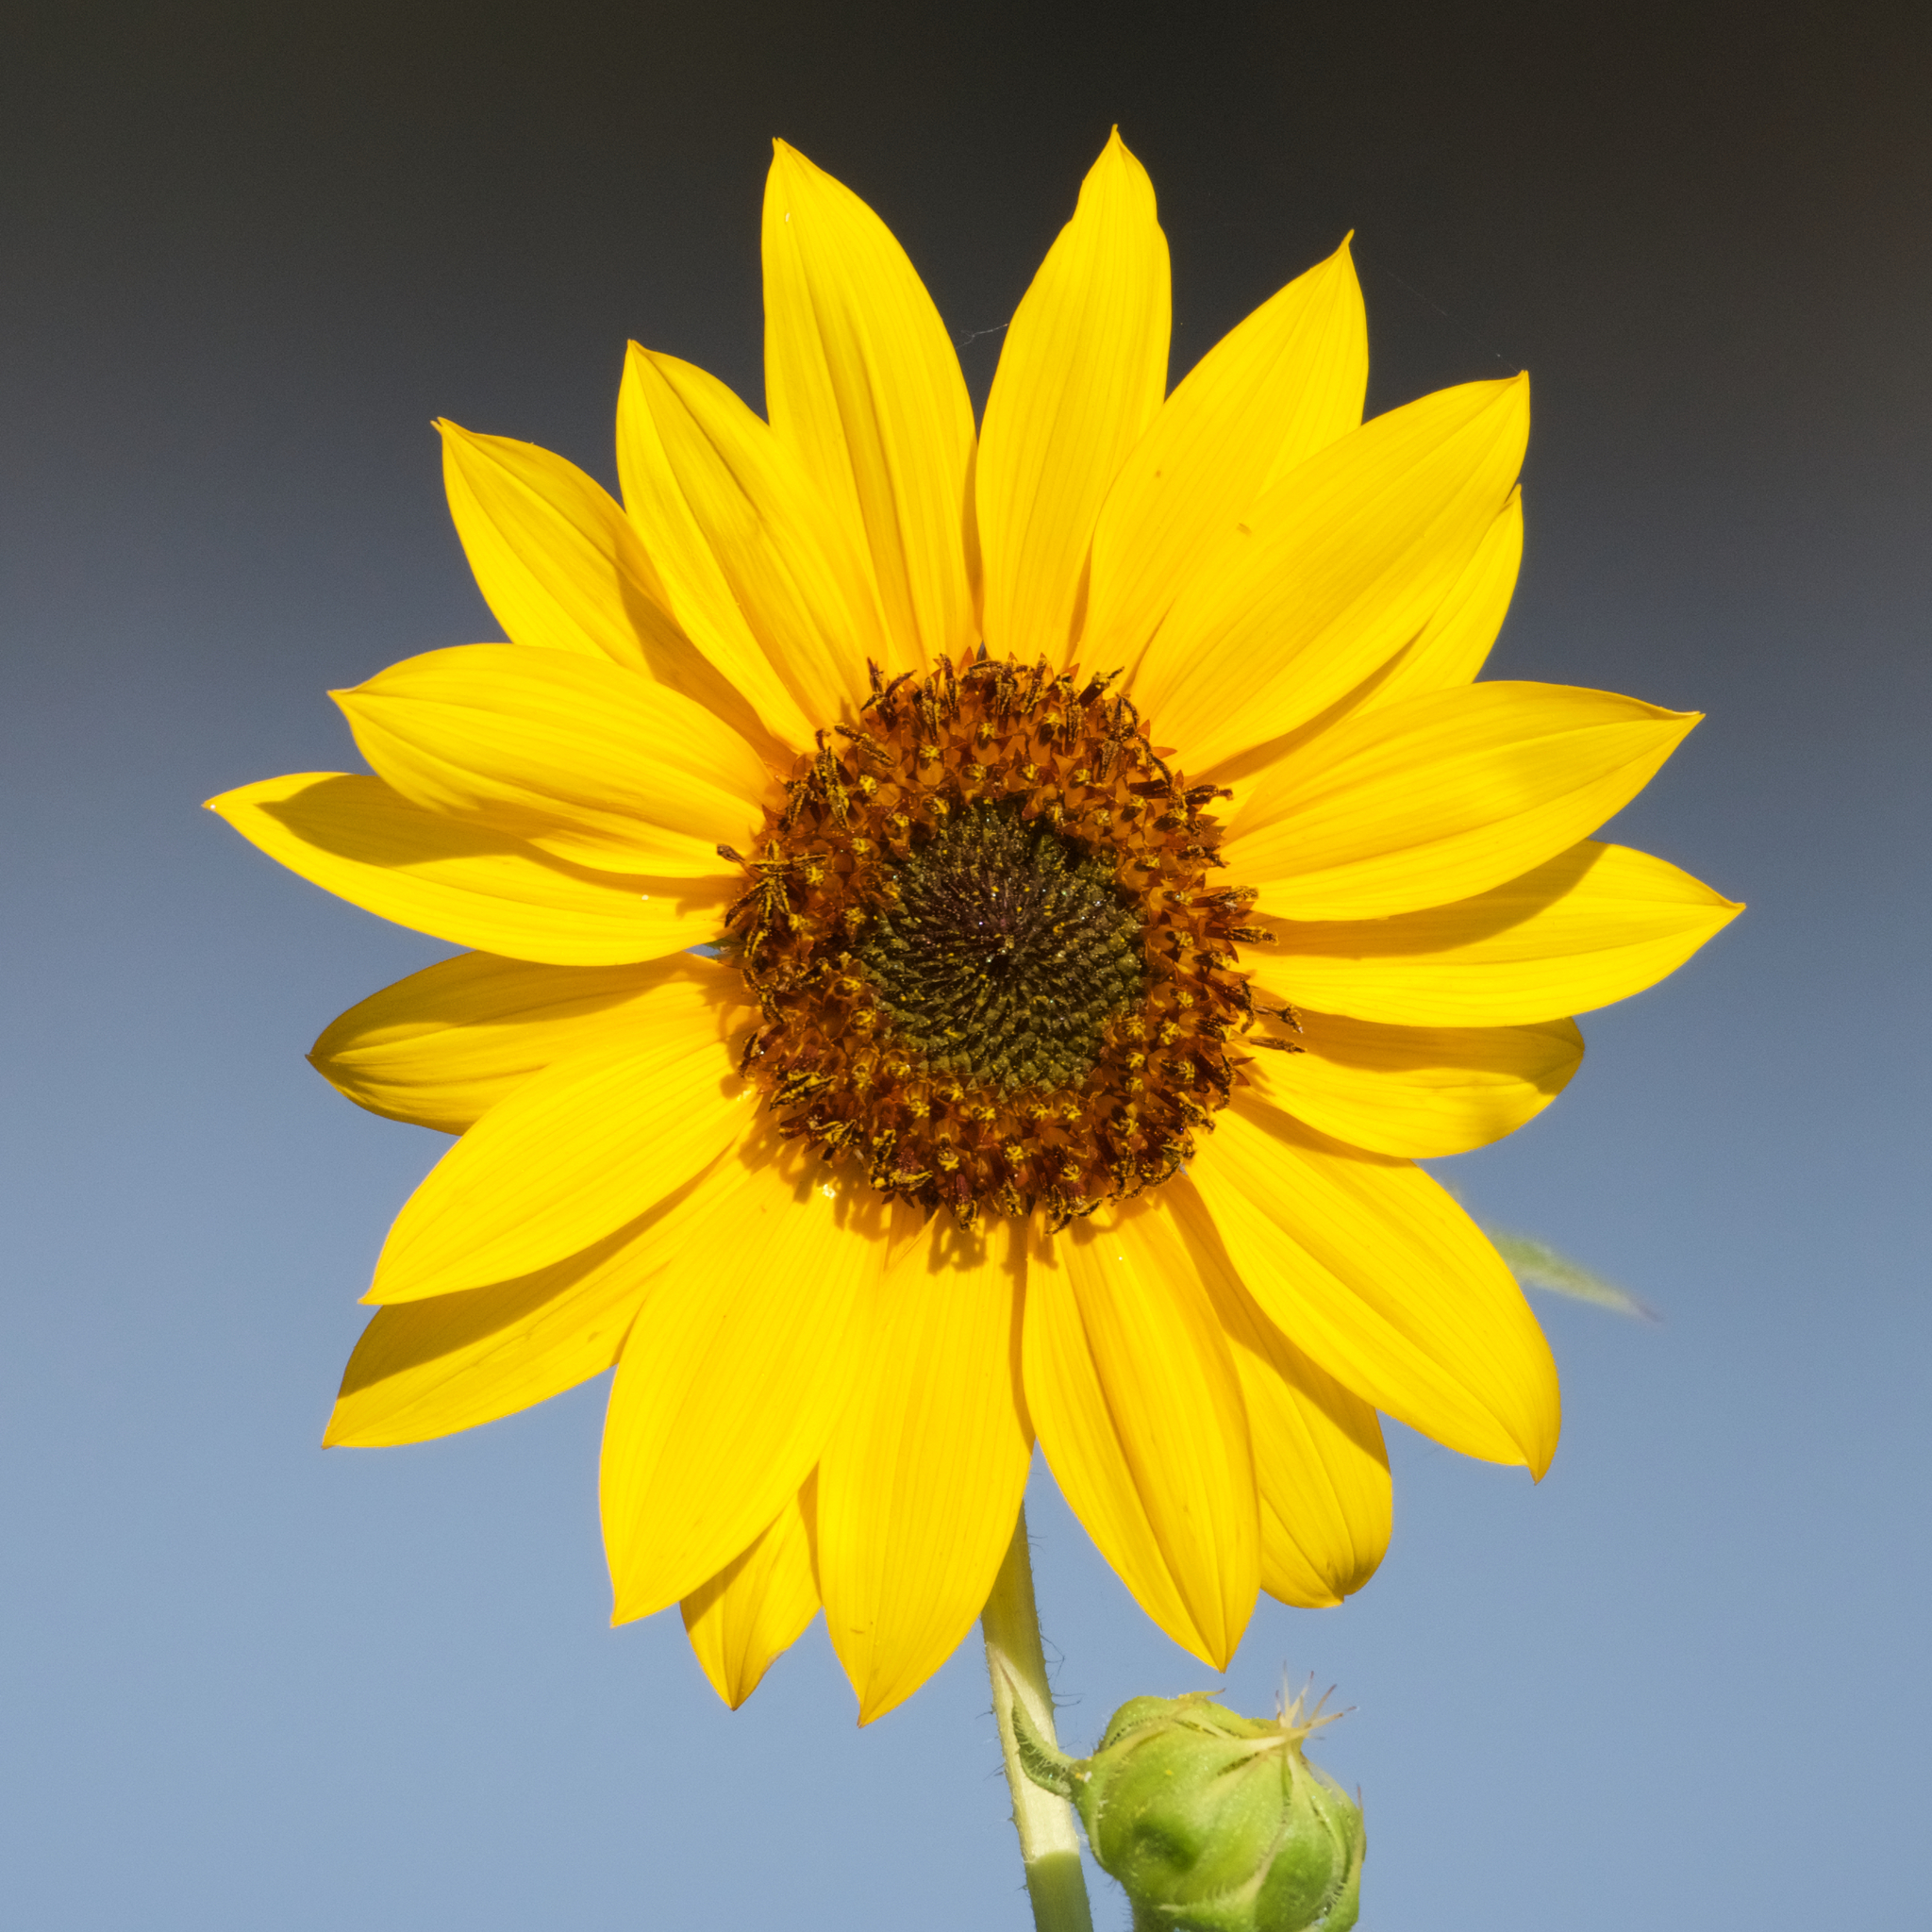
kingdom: Plantae
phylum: Tracheophyta
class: Magnoliopsida
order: Asterales
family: Asteraceae
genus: Helianthus
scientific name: Helianthus annuus
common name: Sunflower
